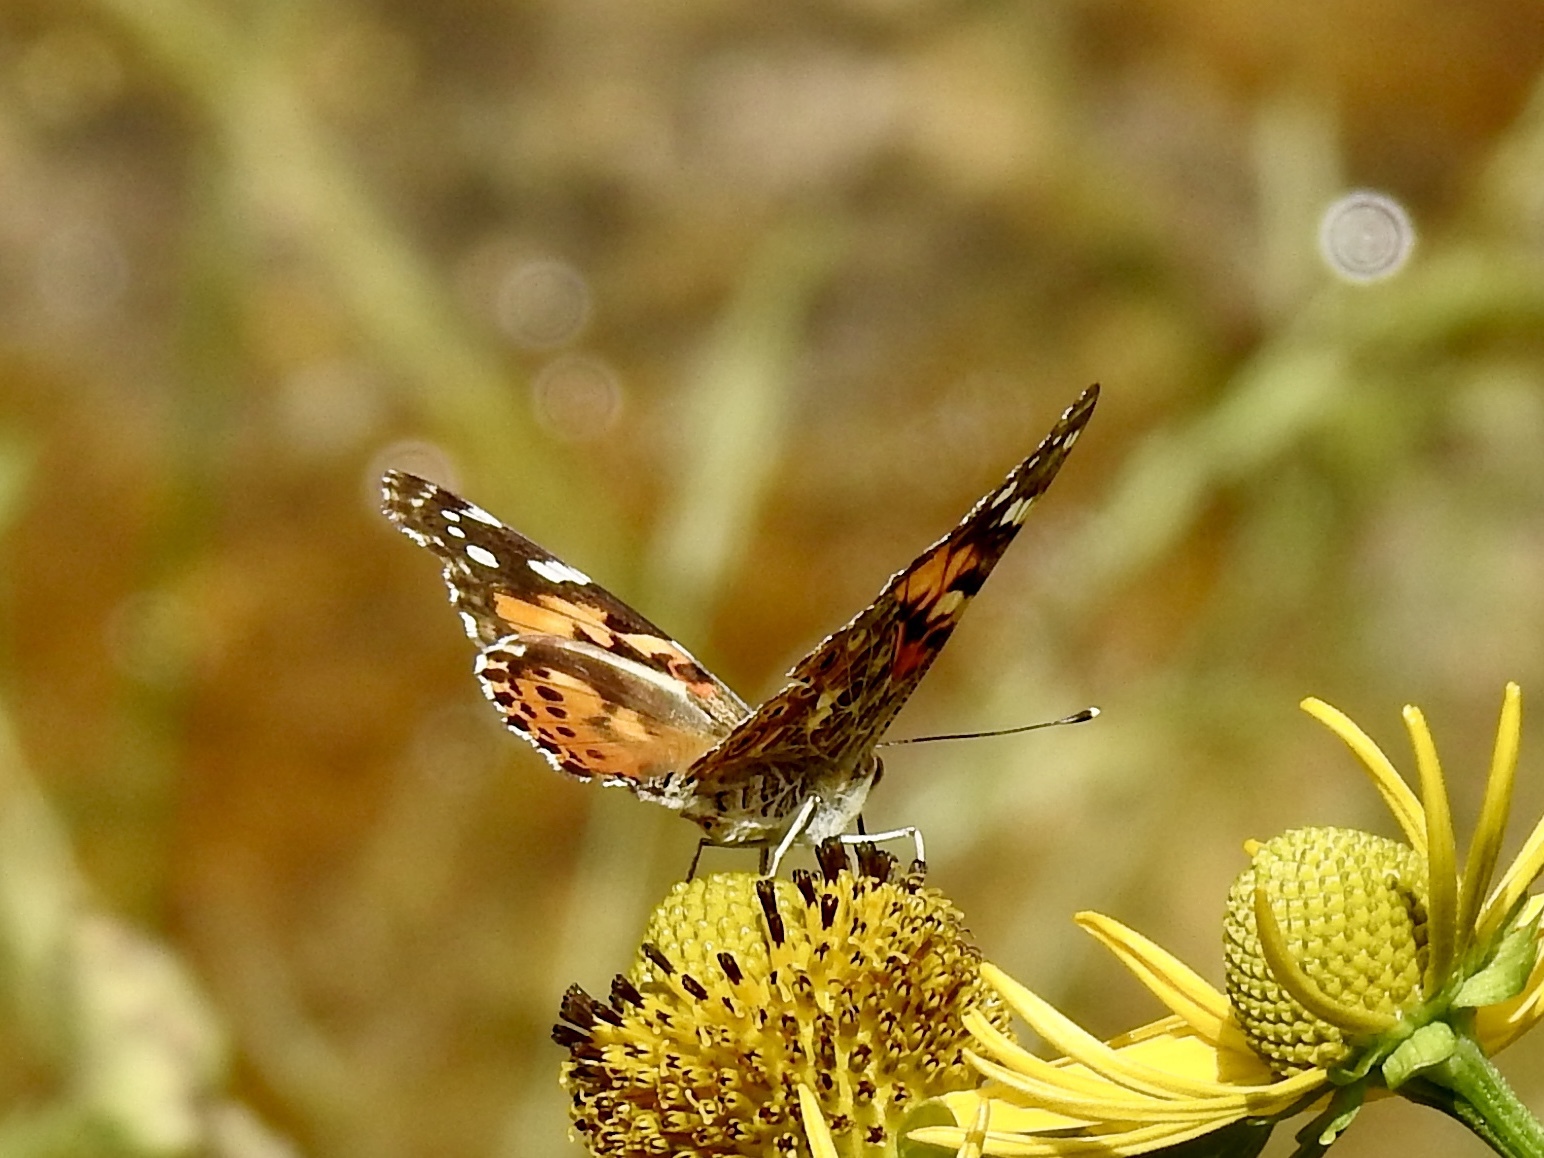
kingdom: Animalia
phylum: Arthropoda
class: Insecta
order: Lepidoptera
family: Nymphalidae
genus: Vanessa
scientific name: Vanessa cardui
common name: Painted lady
